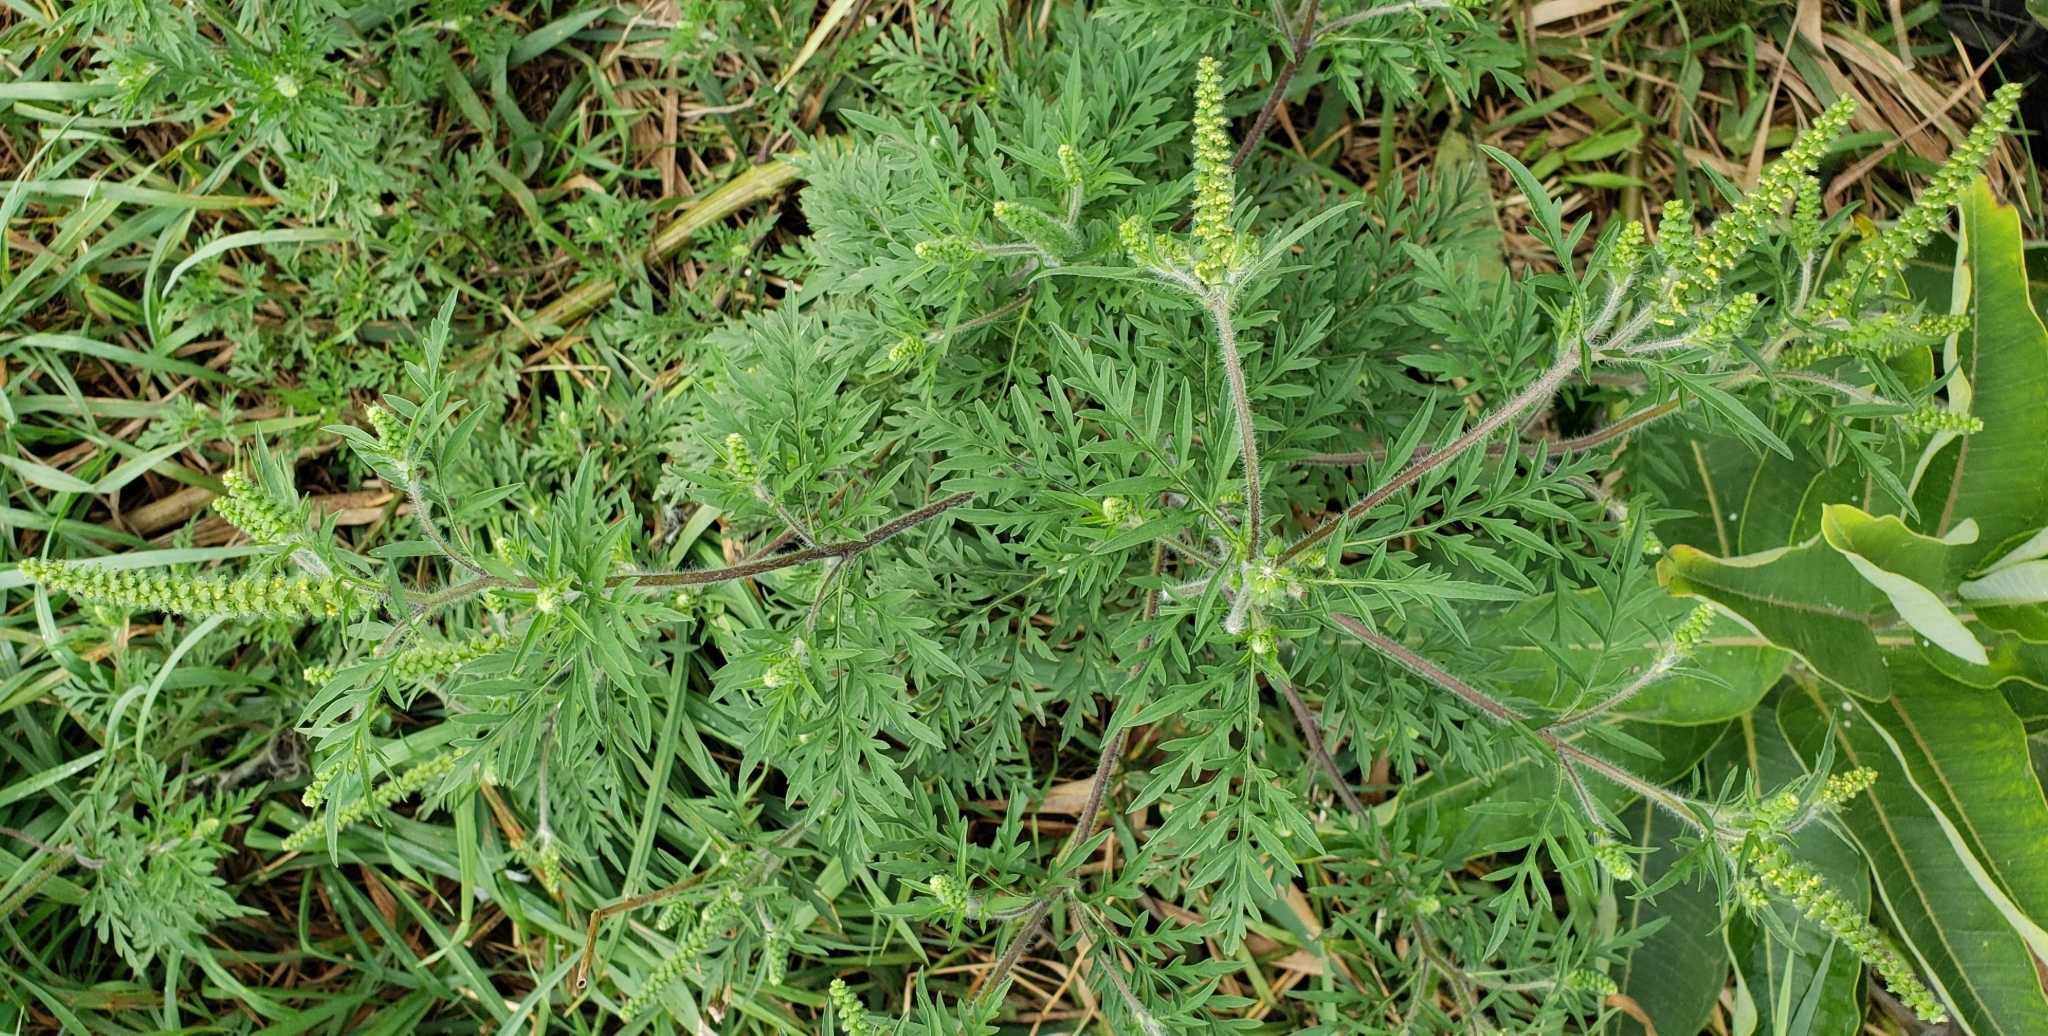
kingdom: Plantae
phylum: Tracheophyta
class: Magnoliopsida
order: Asterales
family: Asteraceae
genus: Ambrosia
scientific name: Ambrosia artemisiifolia
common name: Annual ragweed
